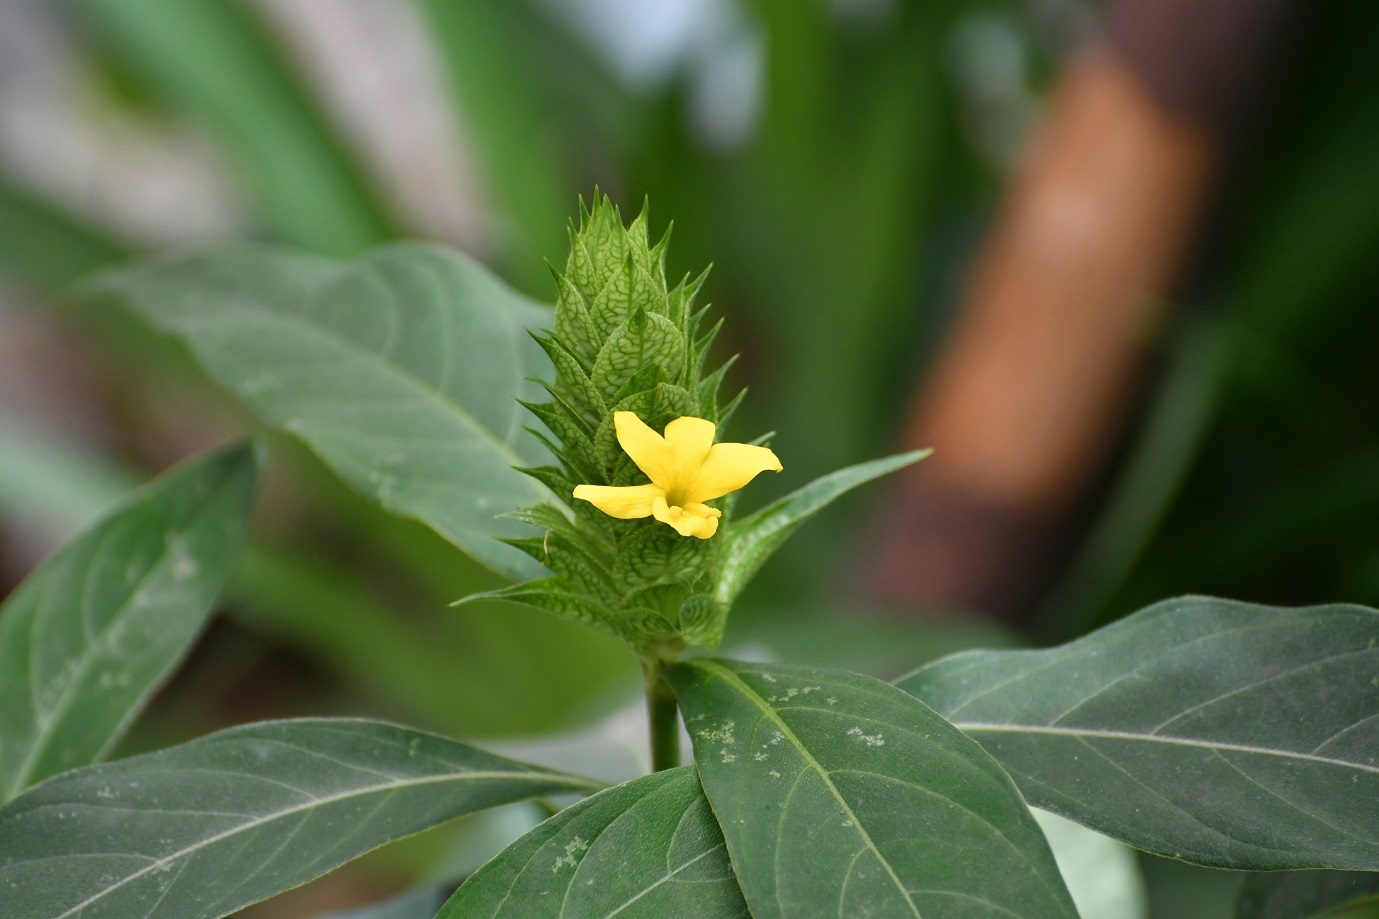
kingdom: Plantae
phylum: Tracheophyta
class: Magnoliopsida
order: Lamiales
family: Acanthaceae
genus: Barleria
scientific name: Barleria oenotheroides
